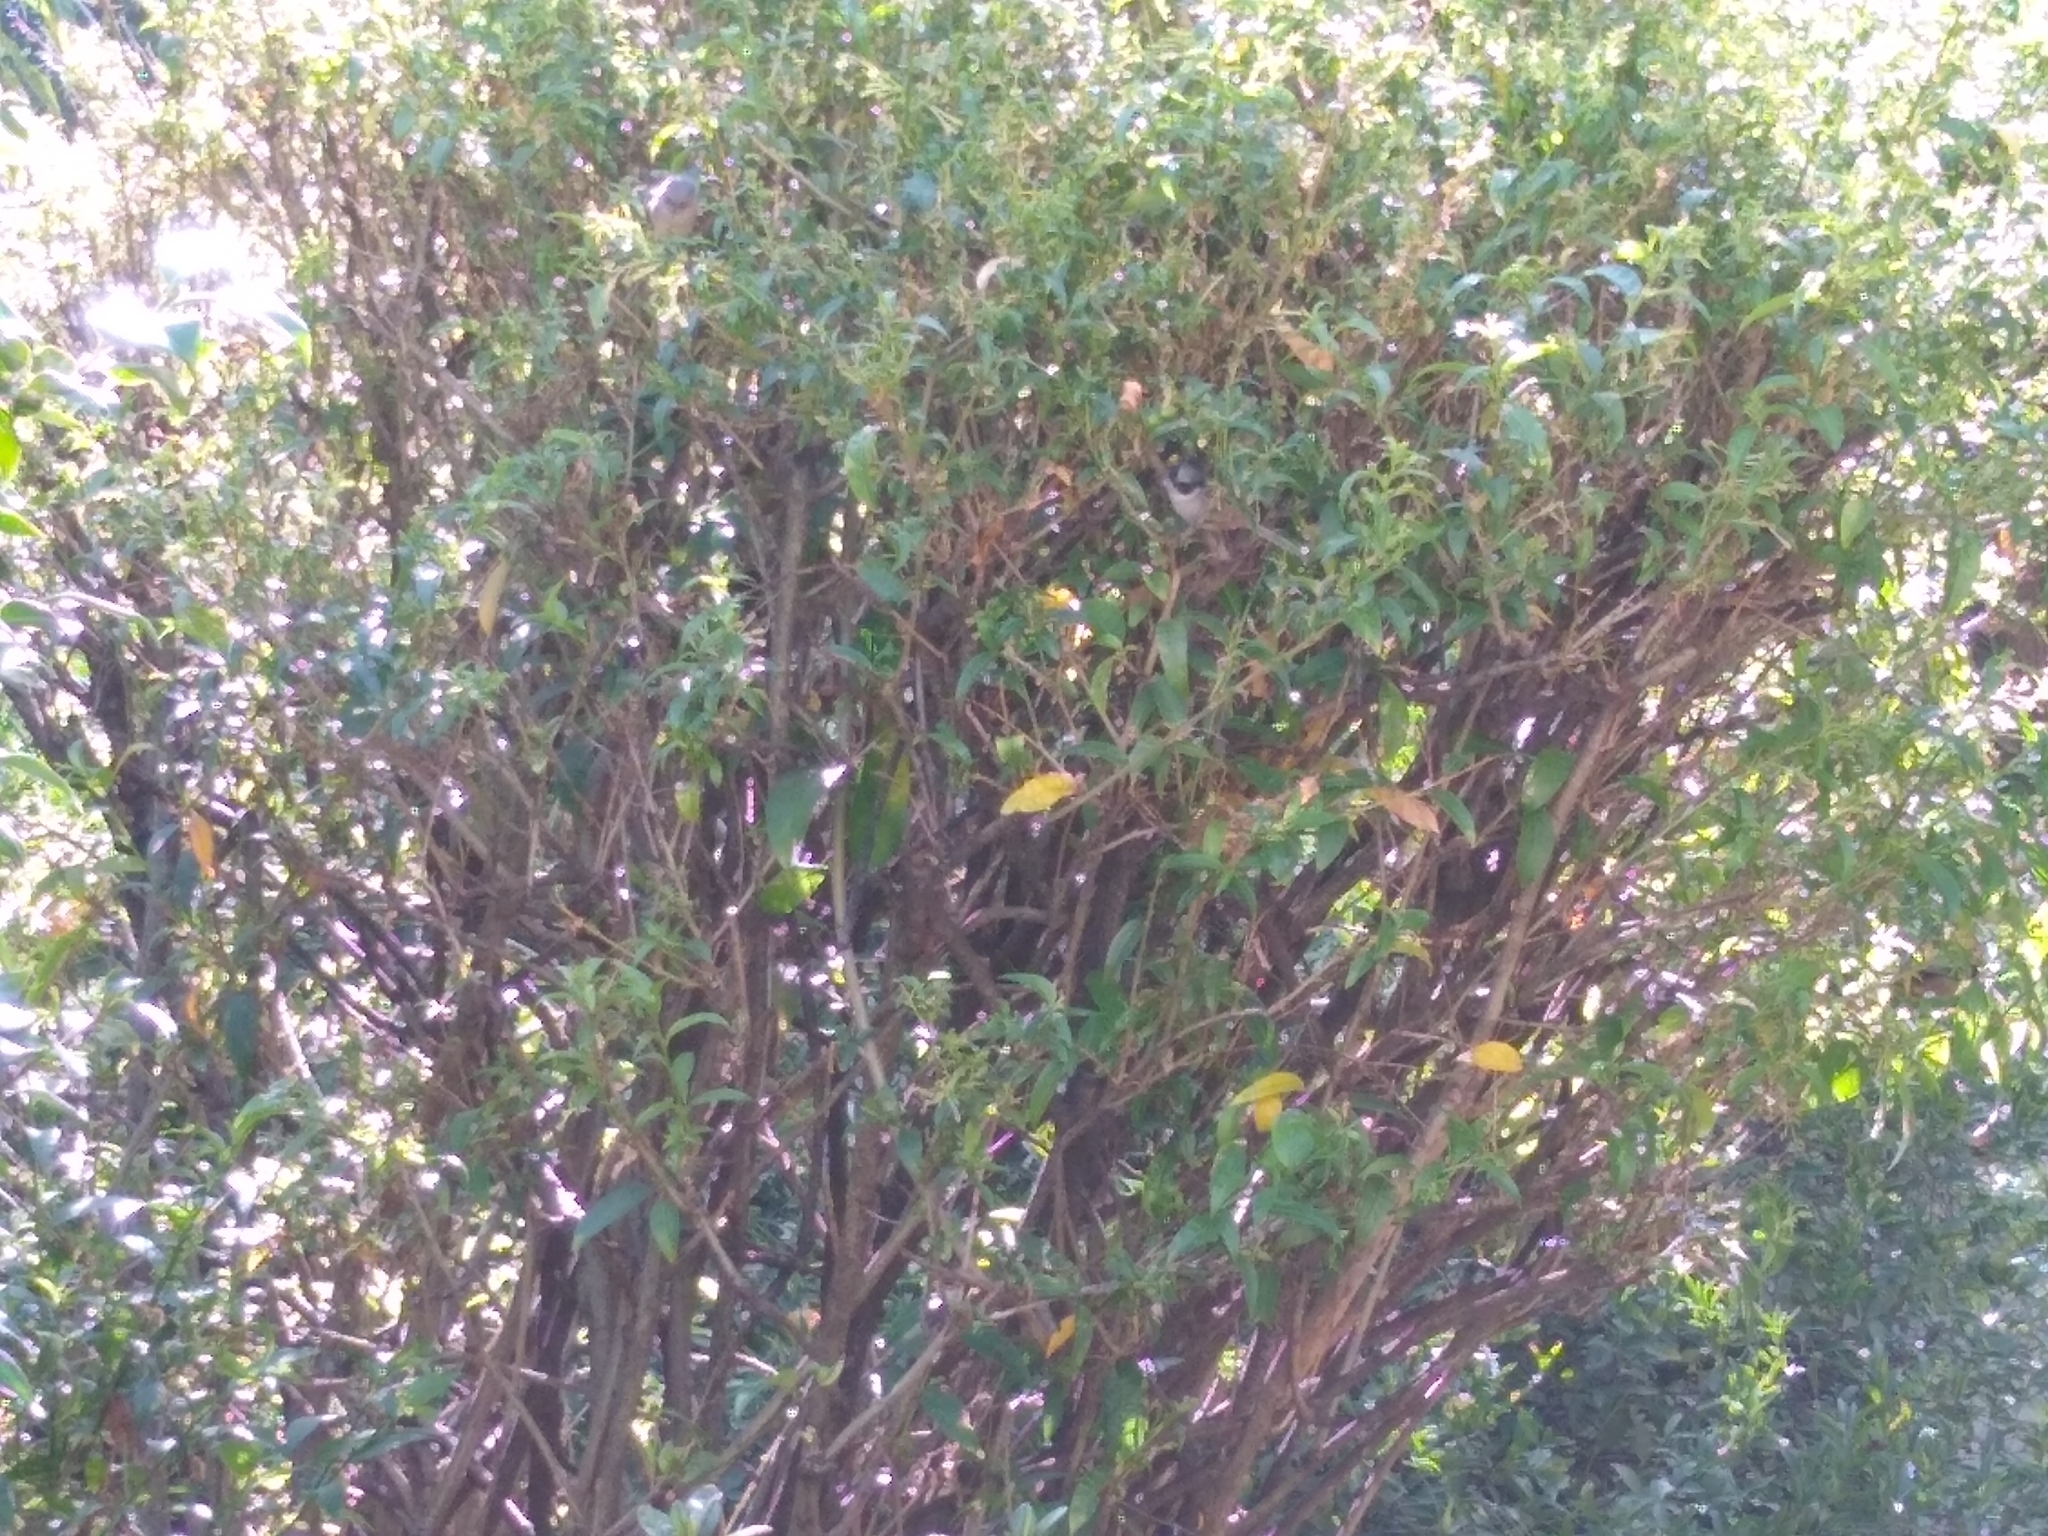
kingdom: Animalia
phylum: Chordata
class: Aves
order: Passeriformes
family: Aegithalidae
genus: Psaltriparus
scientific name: Psaltriparus minimus
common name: American bushtit
